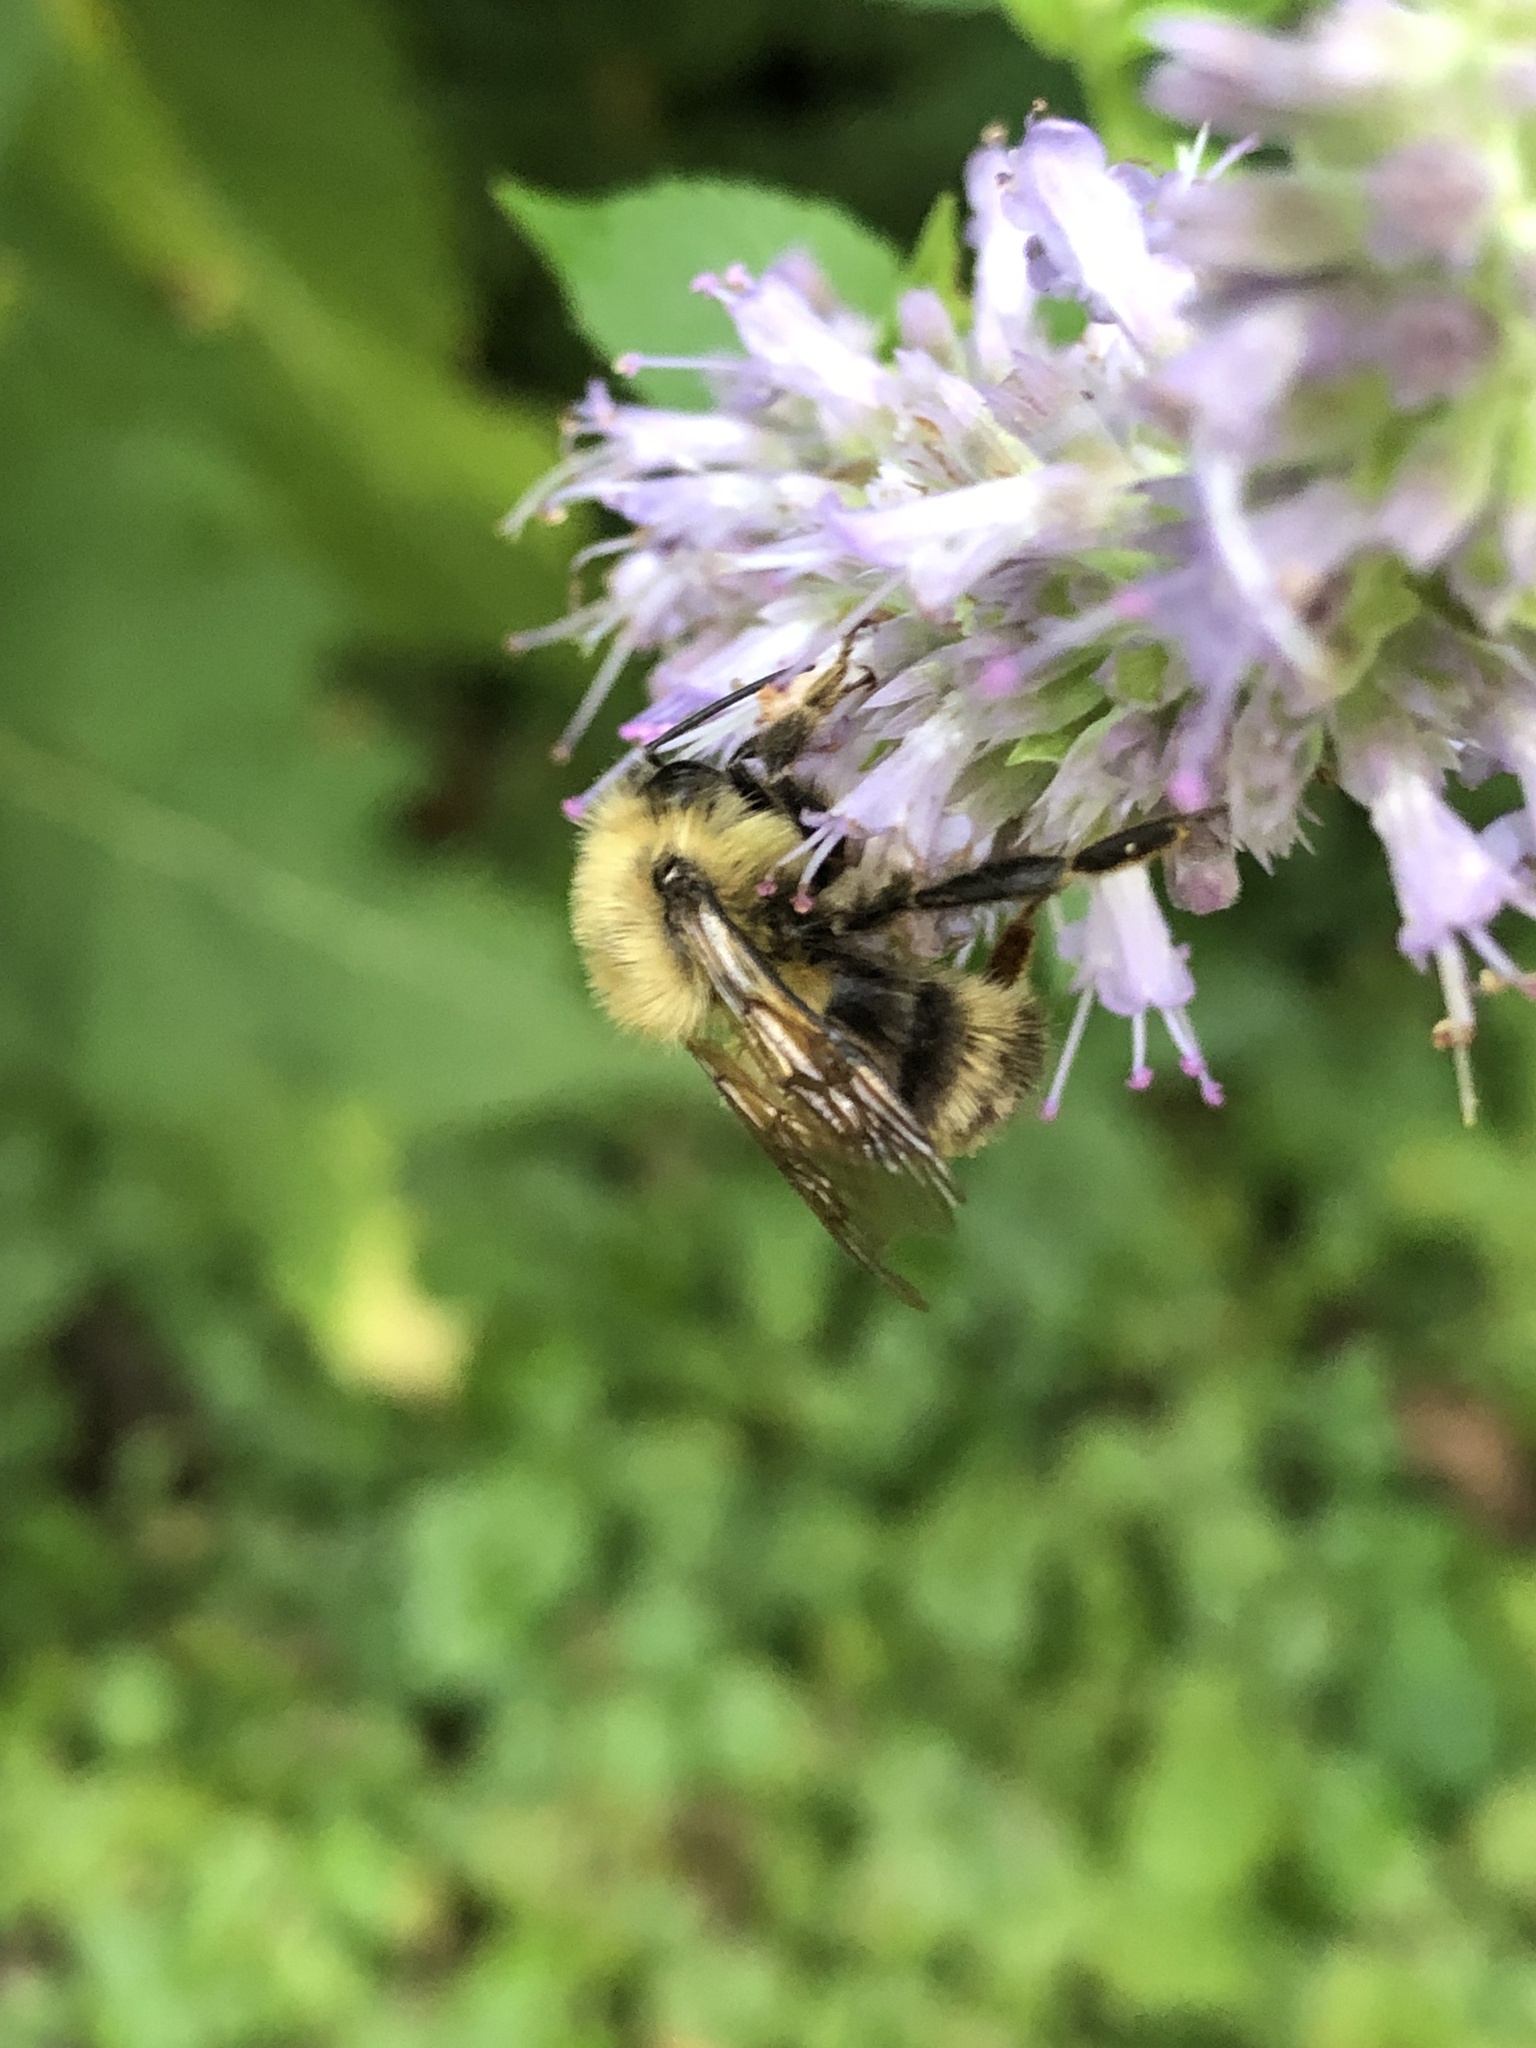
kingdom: Animalia
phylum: Arthropoda
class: Insecta
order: Hymenoptera
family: Apidae
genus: Bombus
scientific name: Bombus bimaculatus
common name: Two-spotted bumble bee
